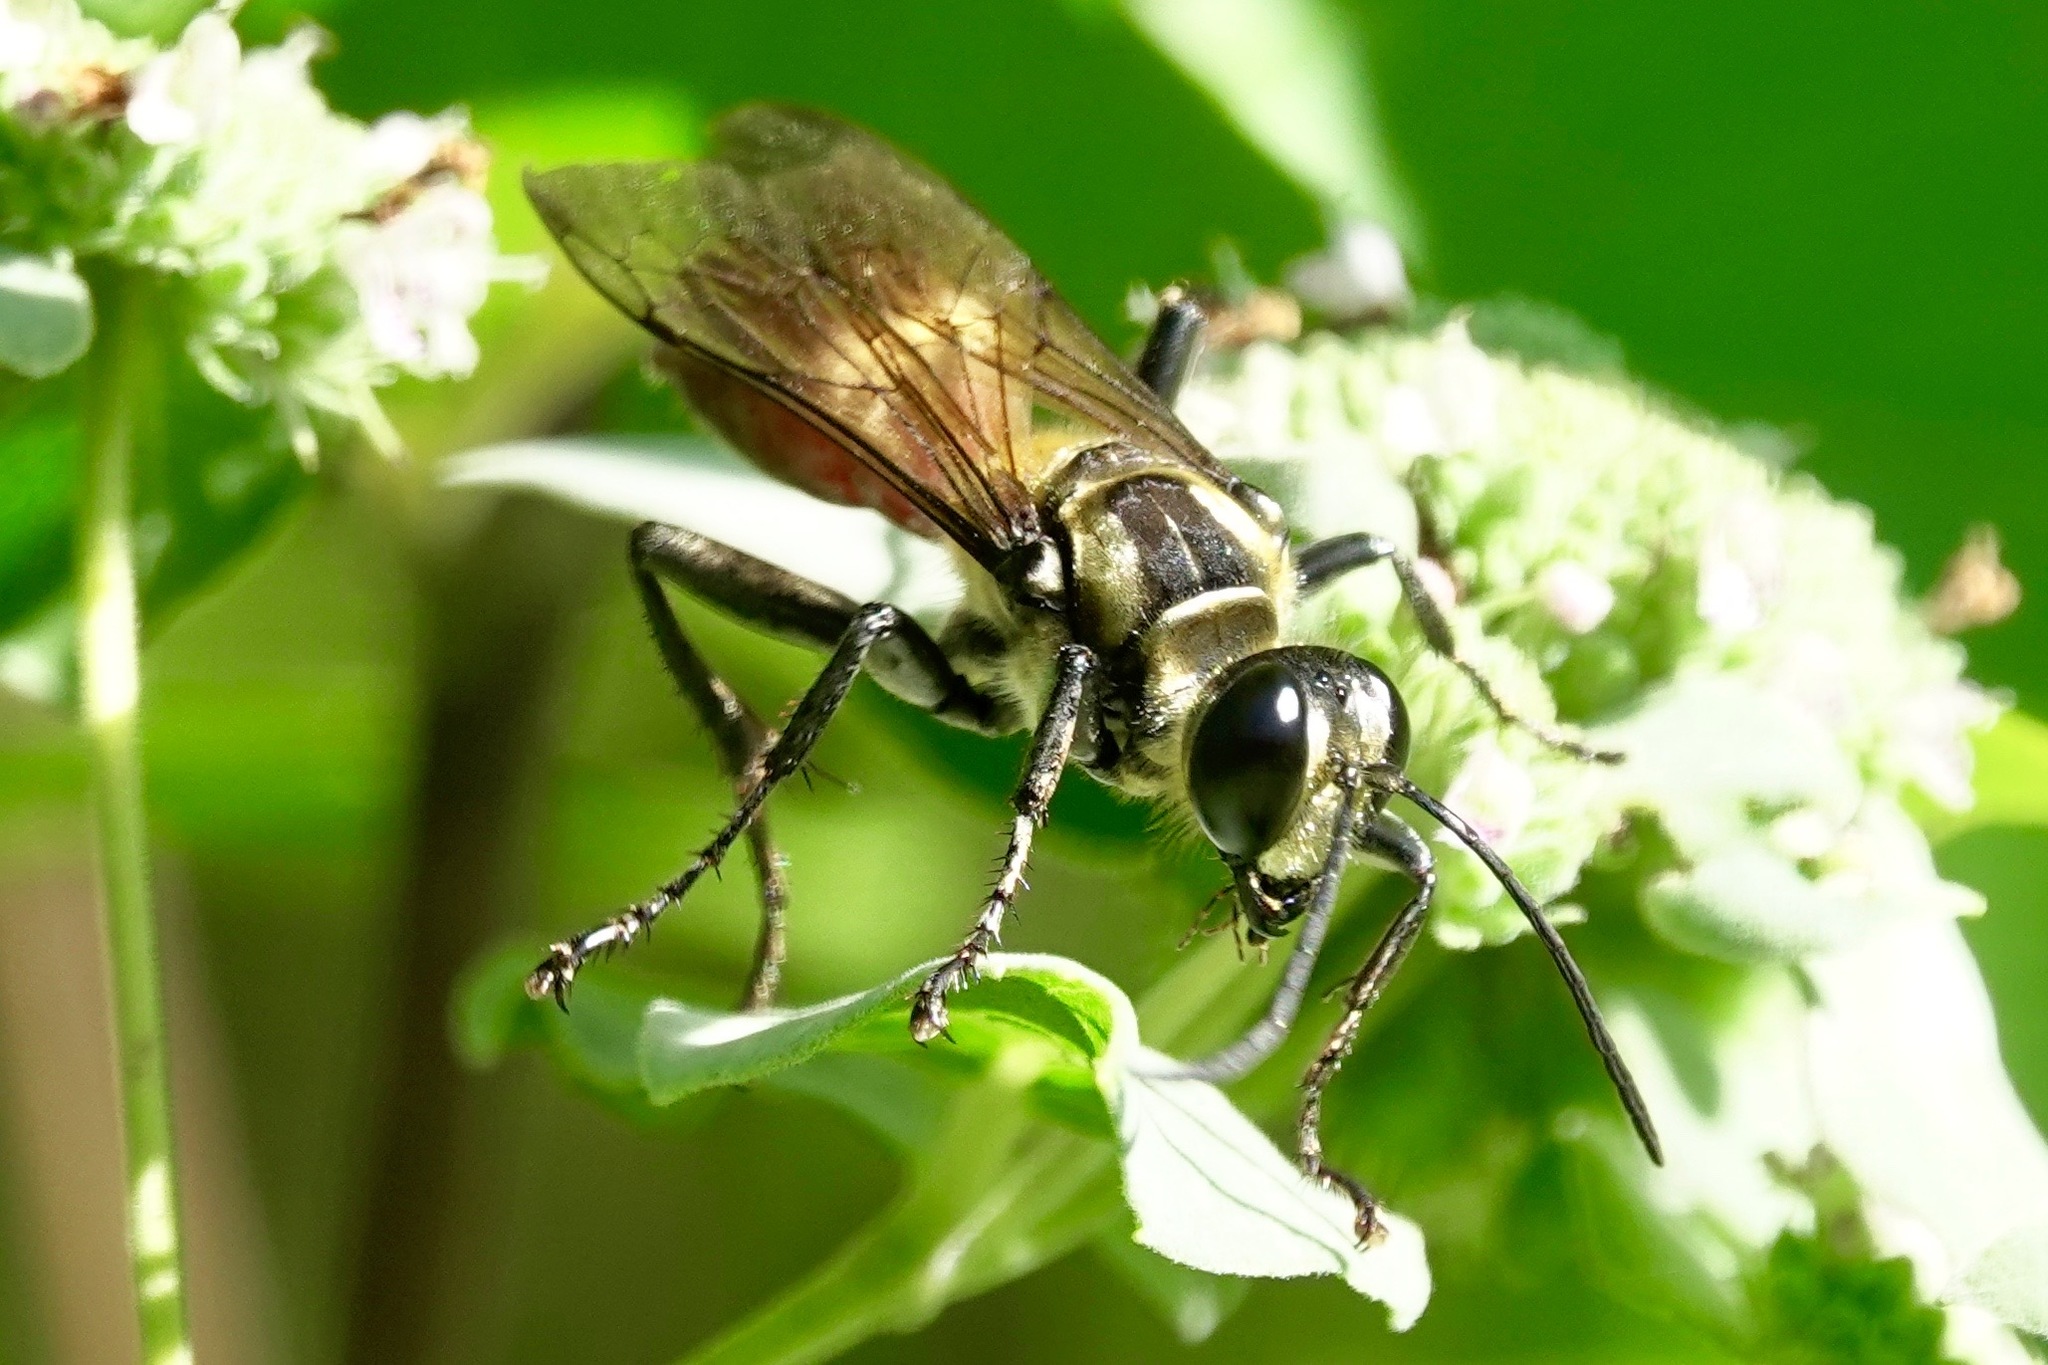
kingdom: Animalia
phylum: Arthropoda
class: Insecta
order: Hymenoptera
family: Sphecidae
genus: Sphex
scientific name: Sphex habenus
